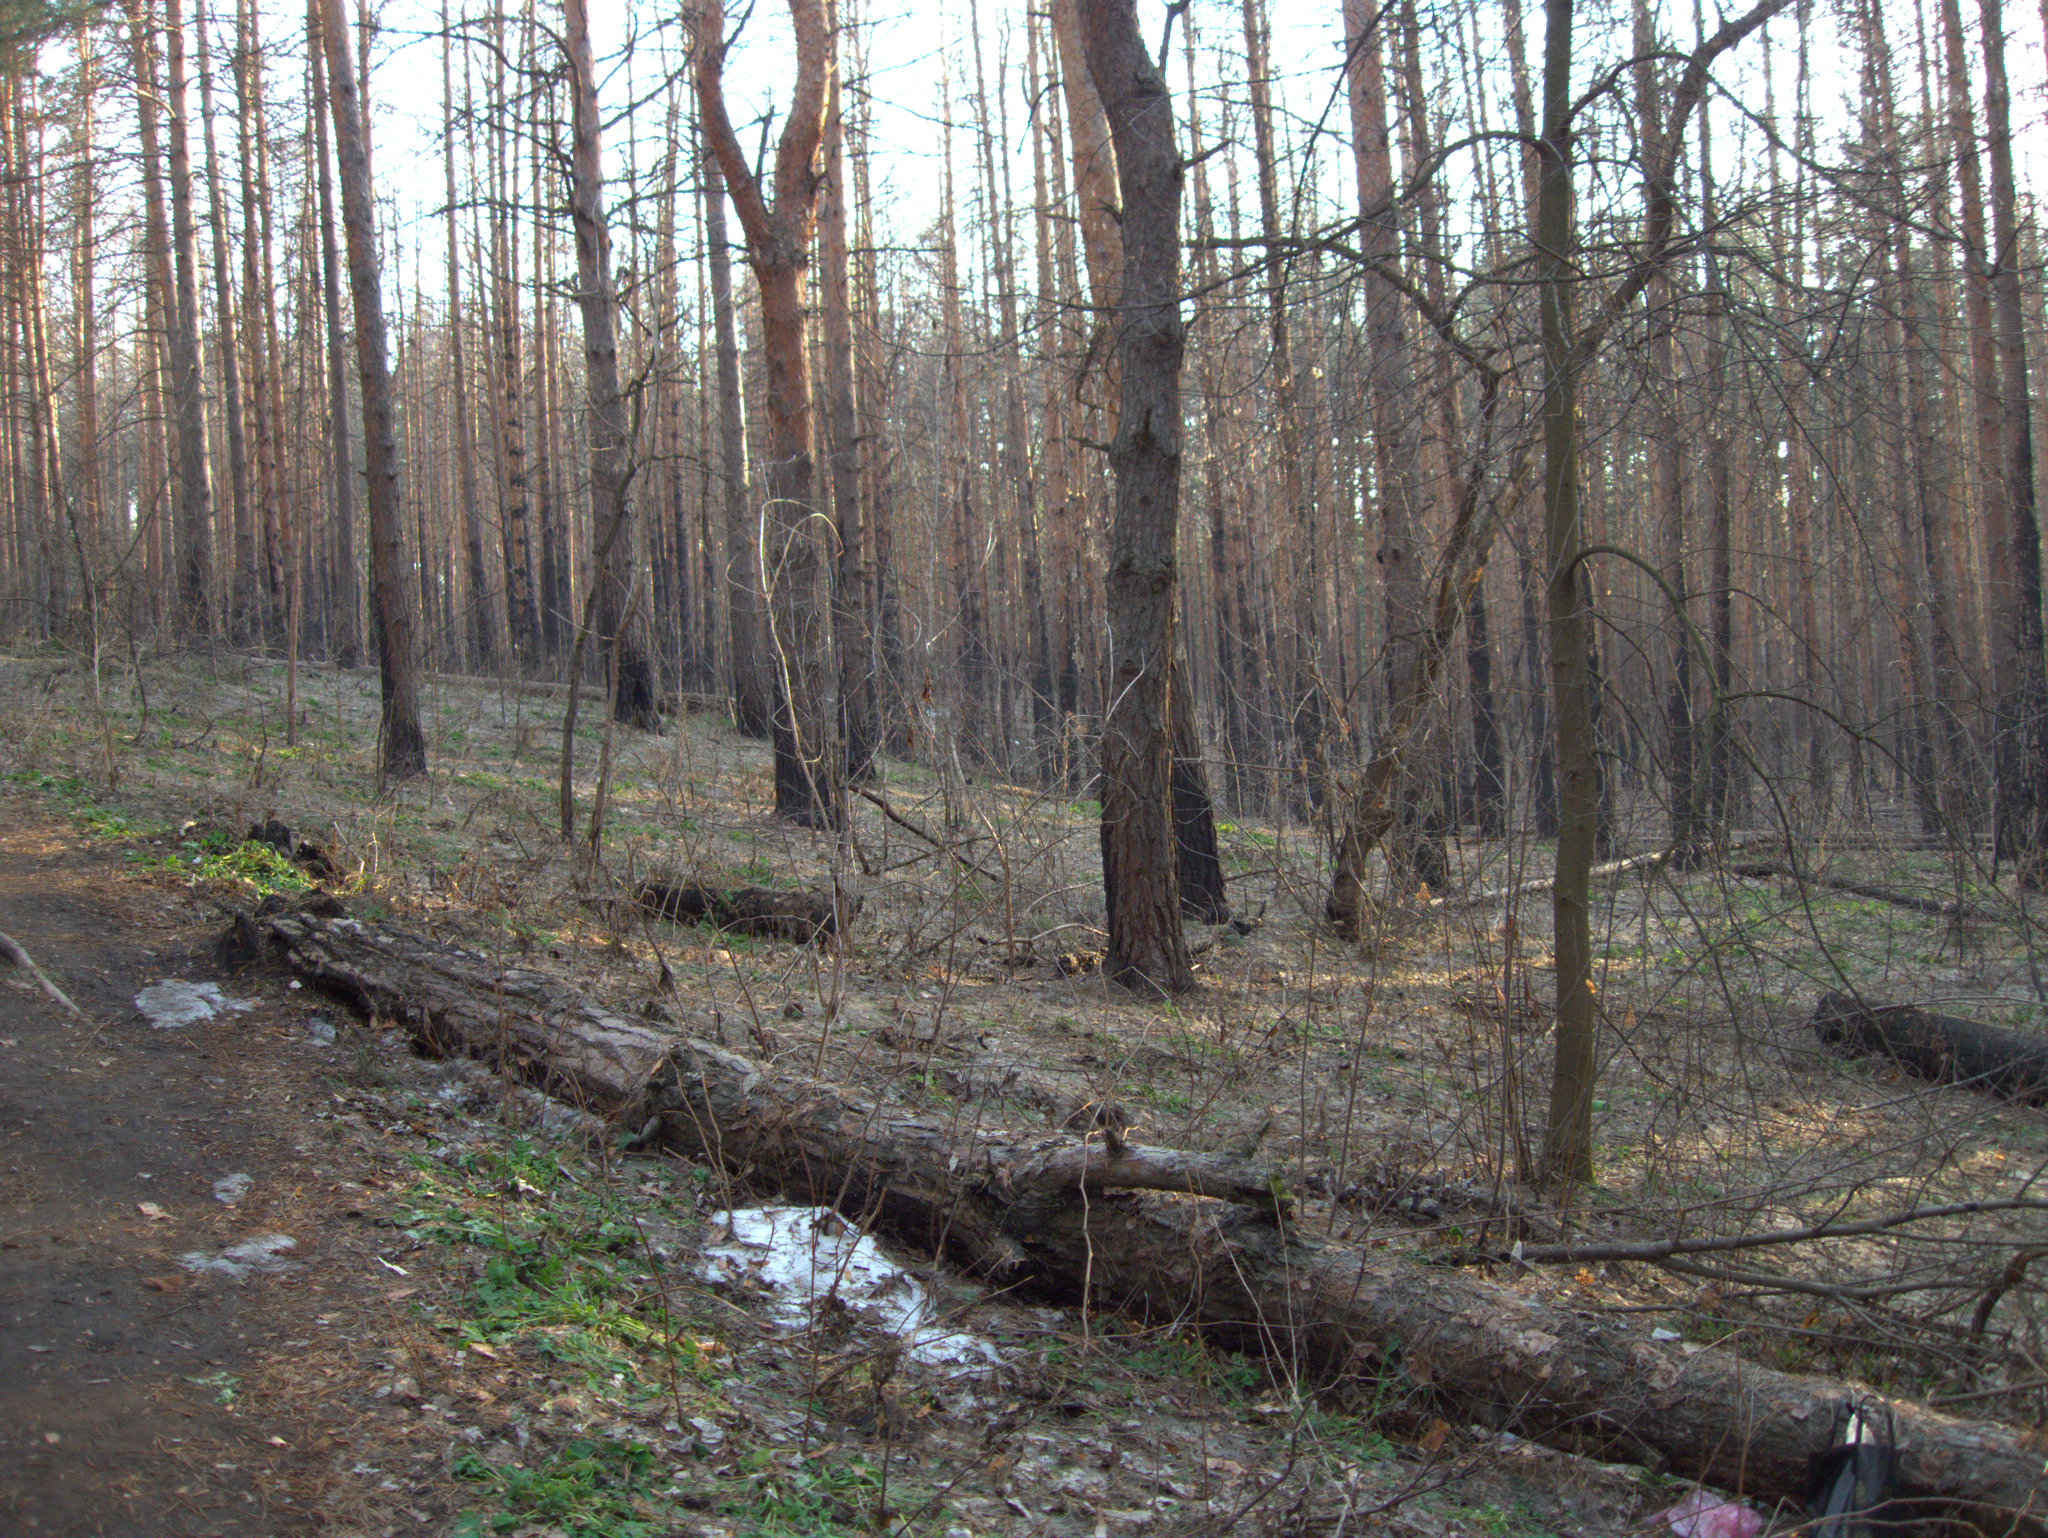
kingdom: Plantae
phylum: Tracheophyta
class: Pinopsida
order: Pinales
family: Pinaceae
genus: Pinus
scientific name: Pinus sylvestris
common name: Scots pine
